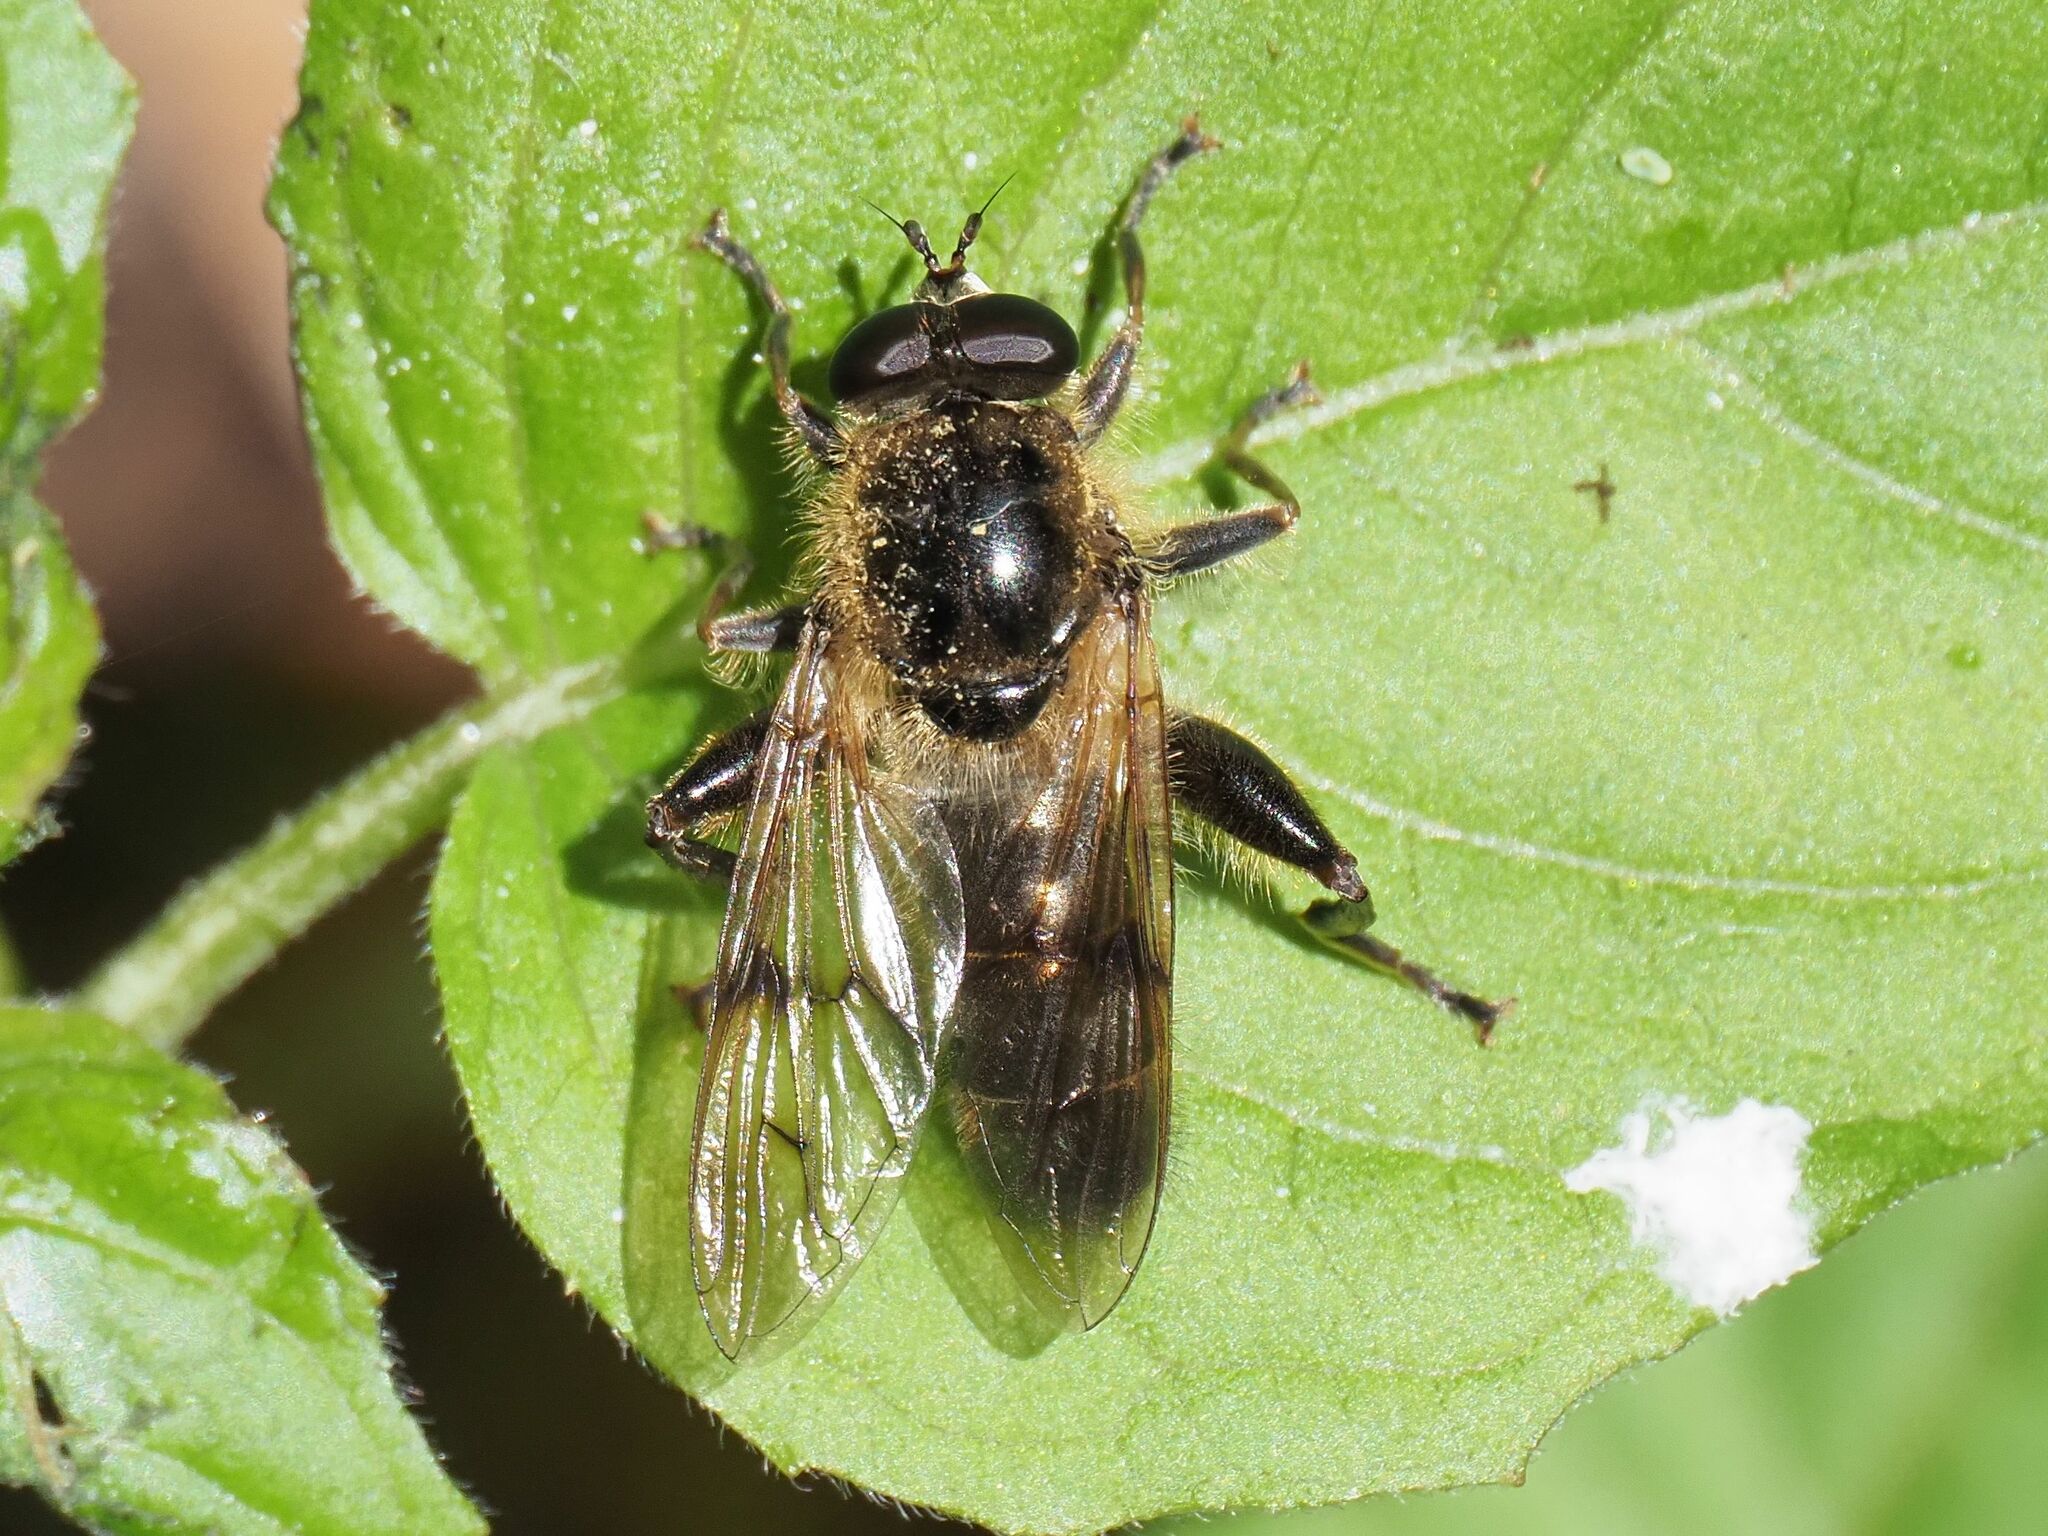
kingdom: Animalia
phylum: Arthropoda
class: Insecta
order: Diptera
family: Syrphidae
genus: Brachypalpus
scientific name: Brachypalpus valgus
